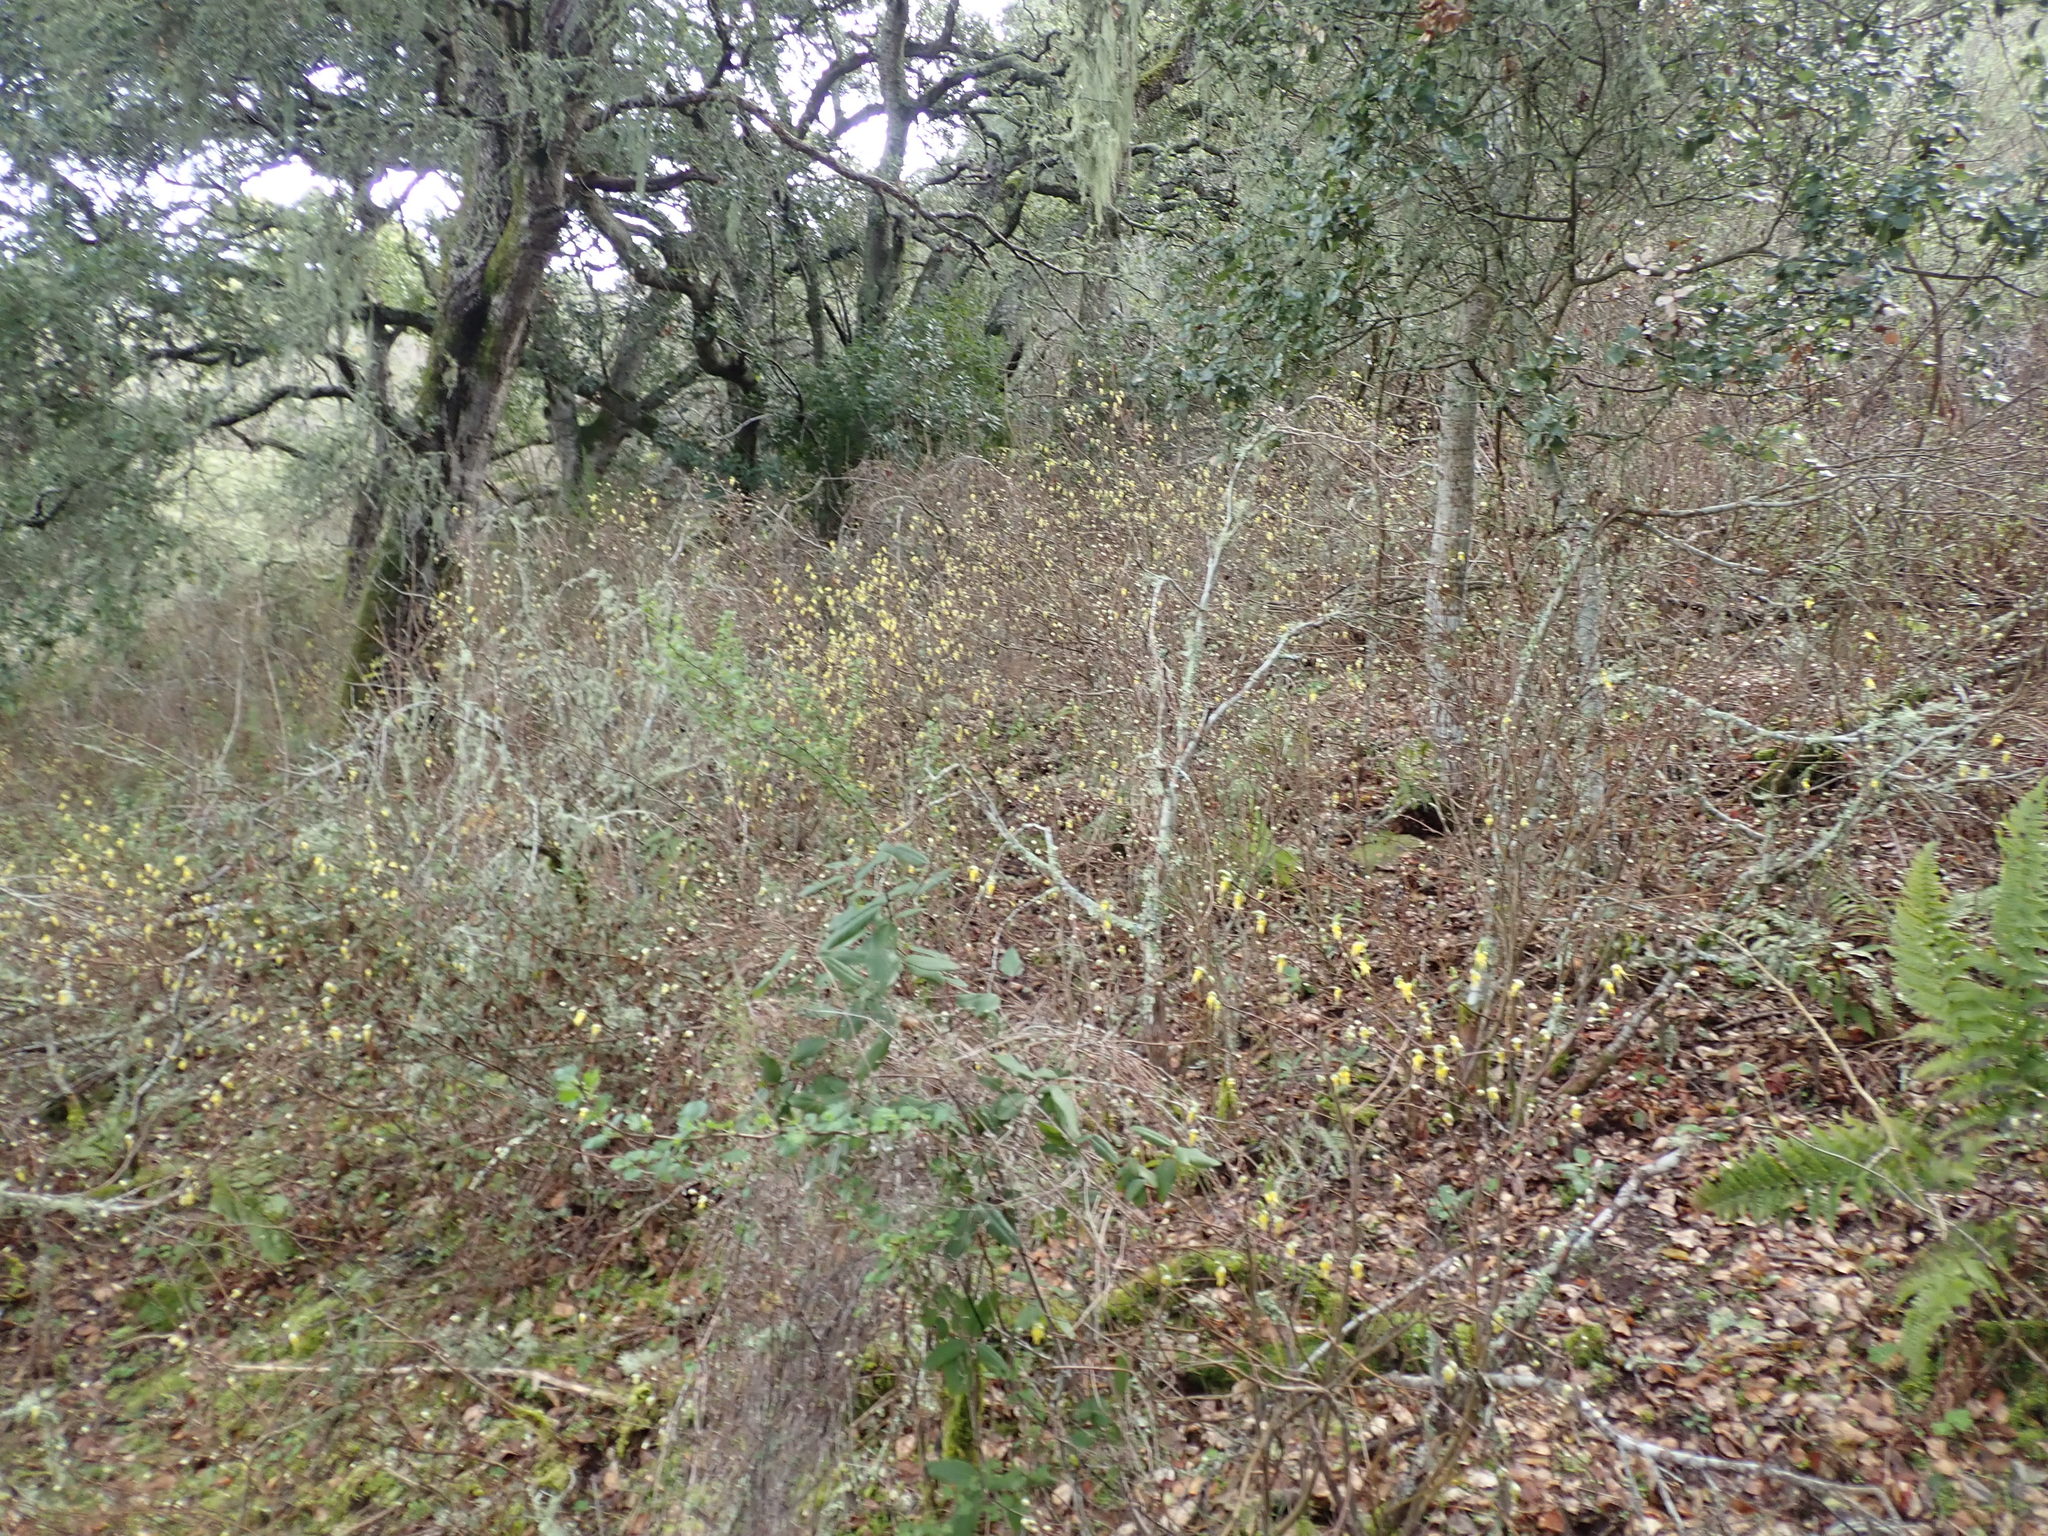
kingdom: Plantae
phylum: Tracheophyta
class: Magnoliopsida
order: Malvales
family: Thymelaeaceae
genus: Dirca
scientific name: Dirca occidentalis
